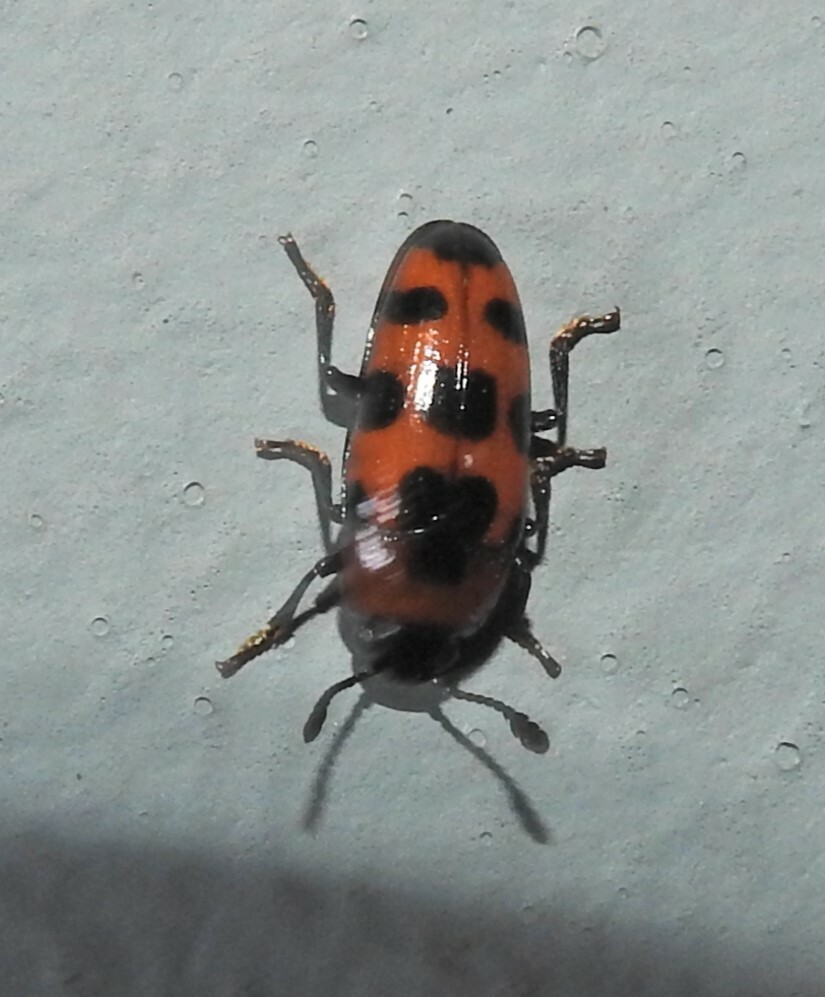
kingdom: Animalia
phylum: Arthropoda
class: Insecta
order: Coleoptera
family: Erotylidae
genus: Episcaphula
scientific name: Episcaphula australis
